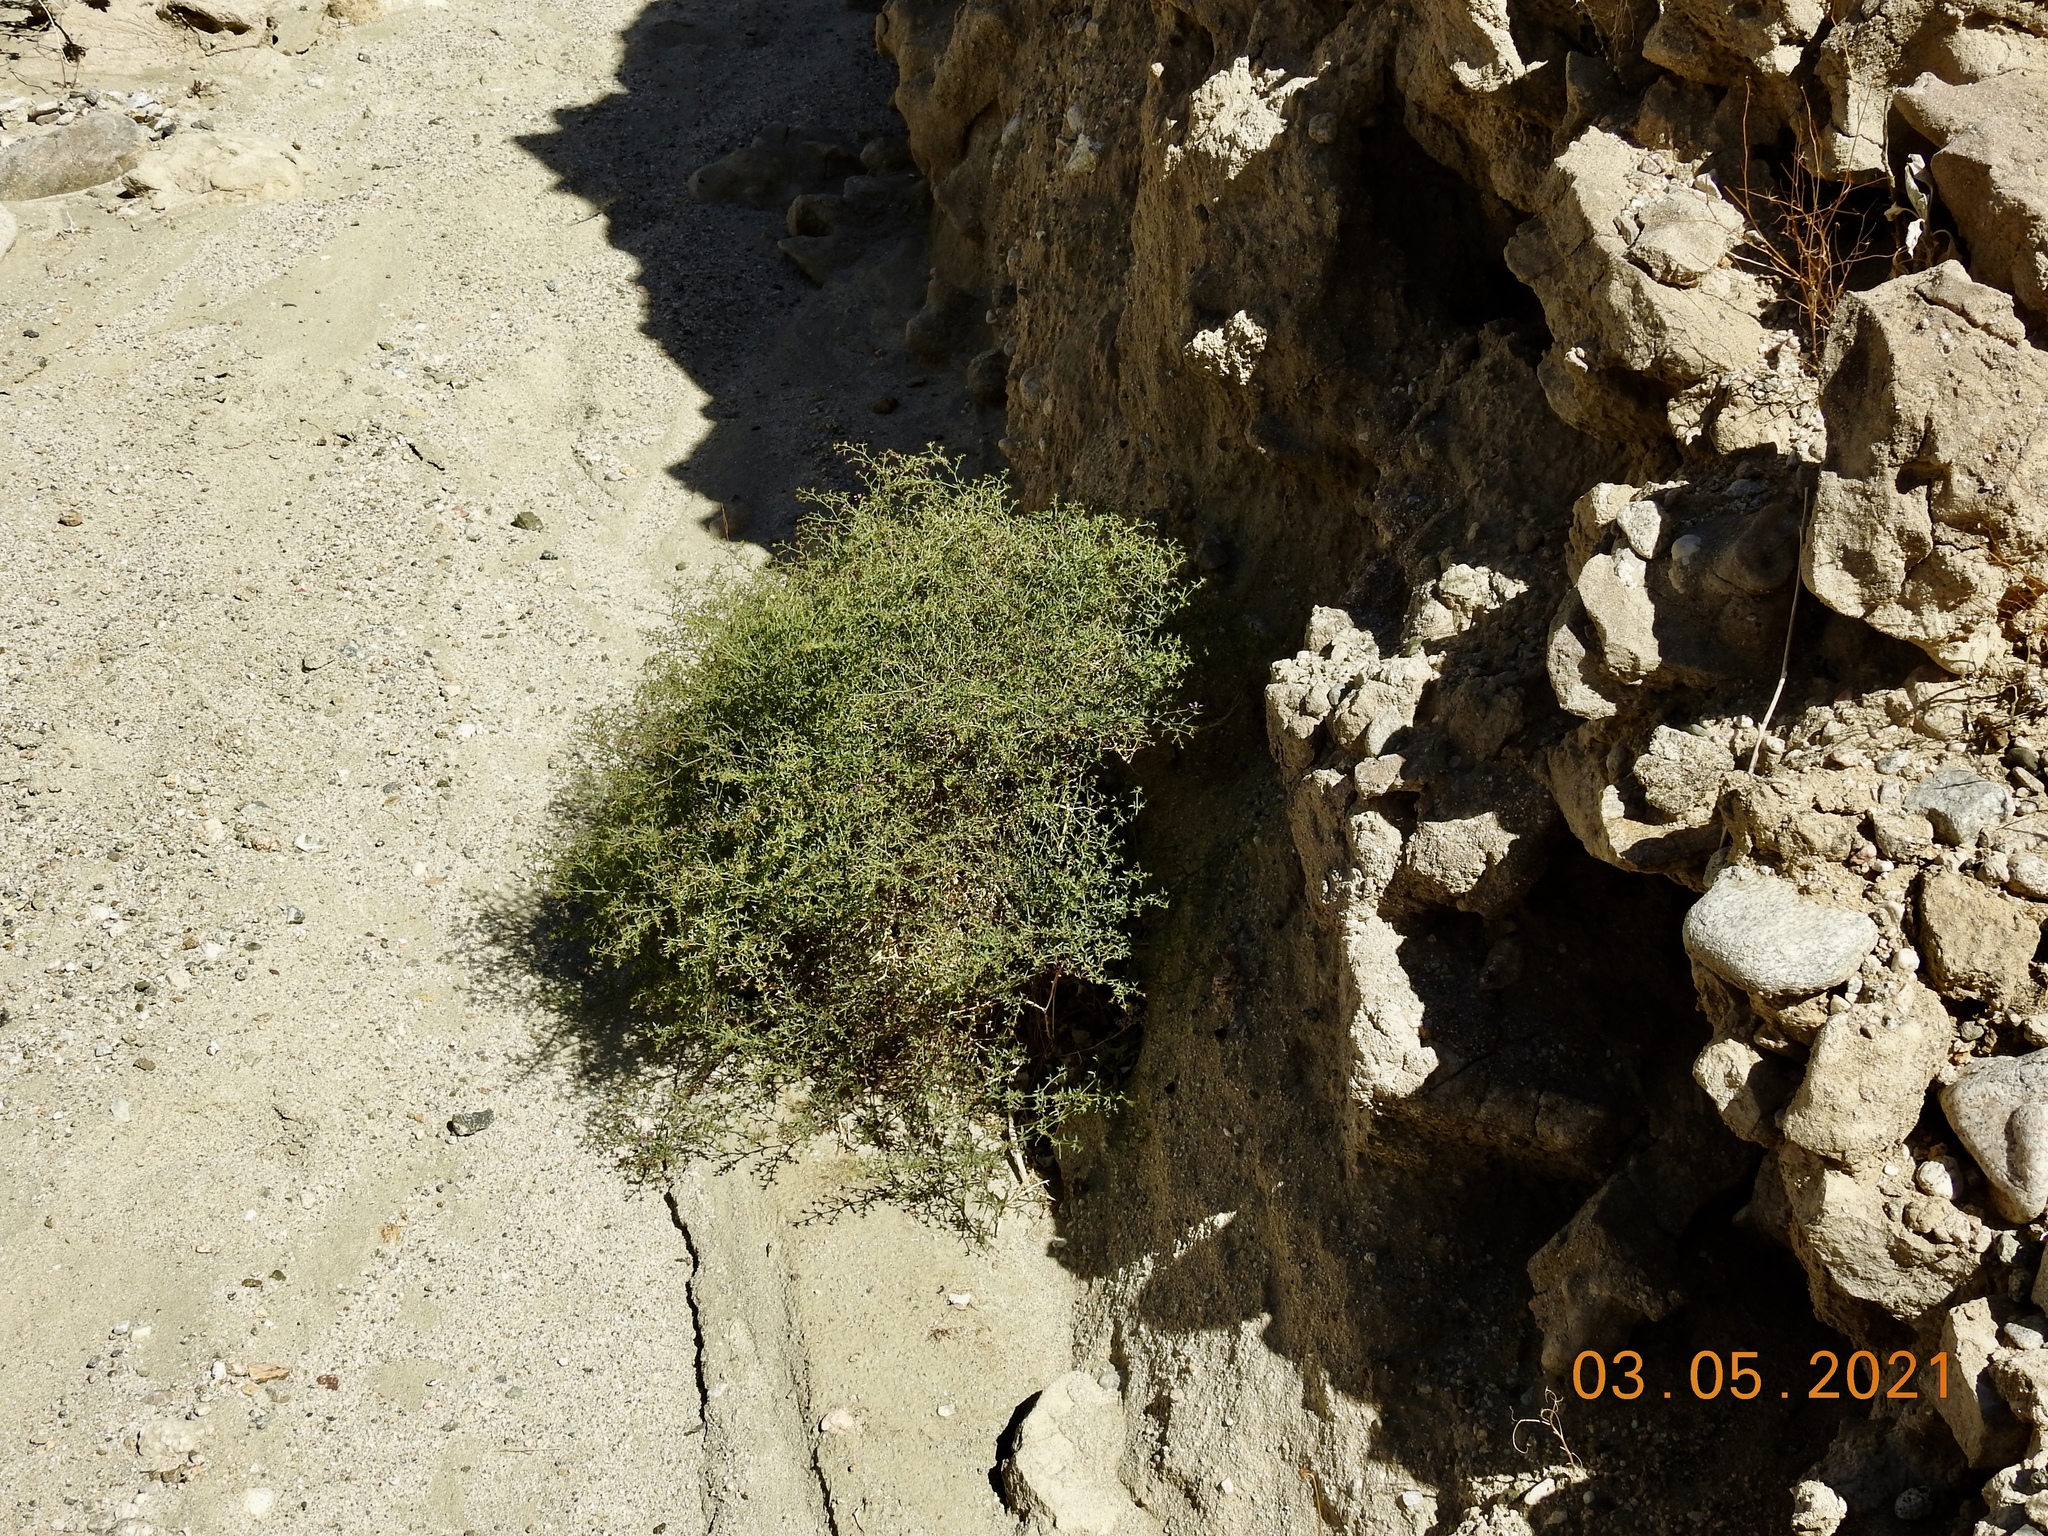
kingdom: Plantae
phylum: Tracheophyta
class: Magnoliopsida
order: Zygophyllales
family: Zygophyllaceae
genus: Fagonia
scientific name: Fagonia laevis
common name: California fagonbush
